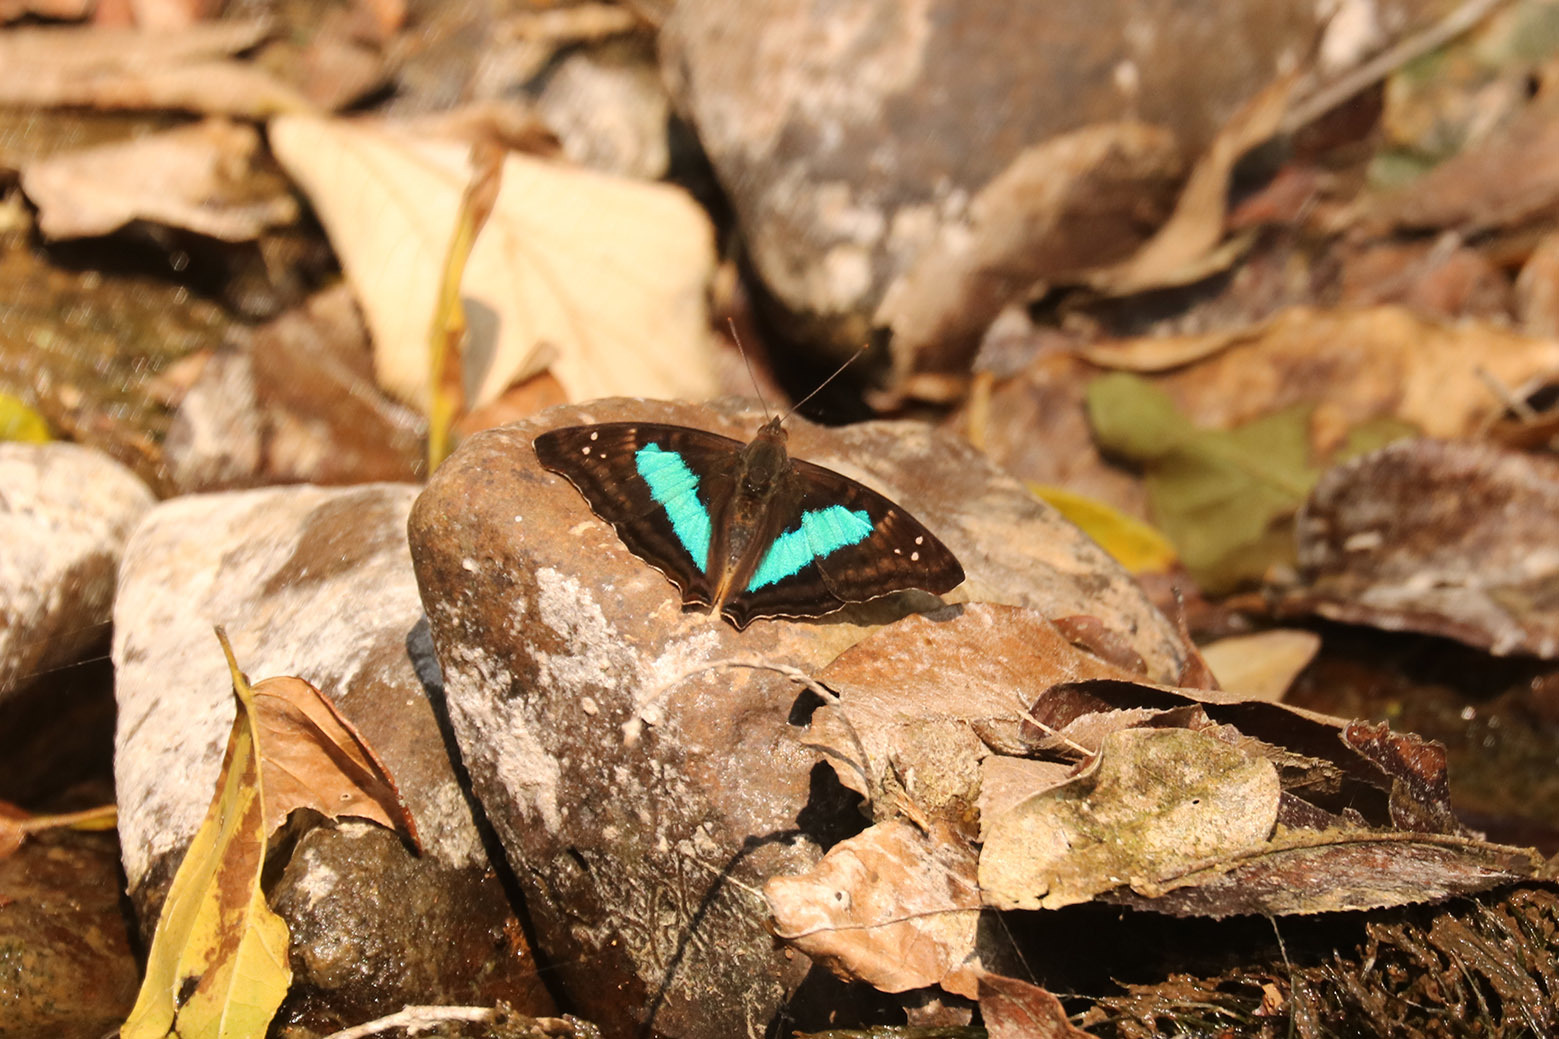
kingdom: Animalia
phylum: Arthropoda
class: Insecta
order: Lepidoptera
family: Nymphalidae
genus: Doxocopa
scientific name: Doxocopa laurentia
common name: Turquoise emperor
